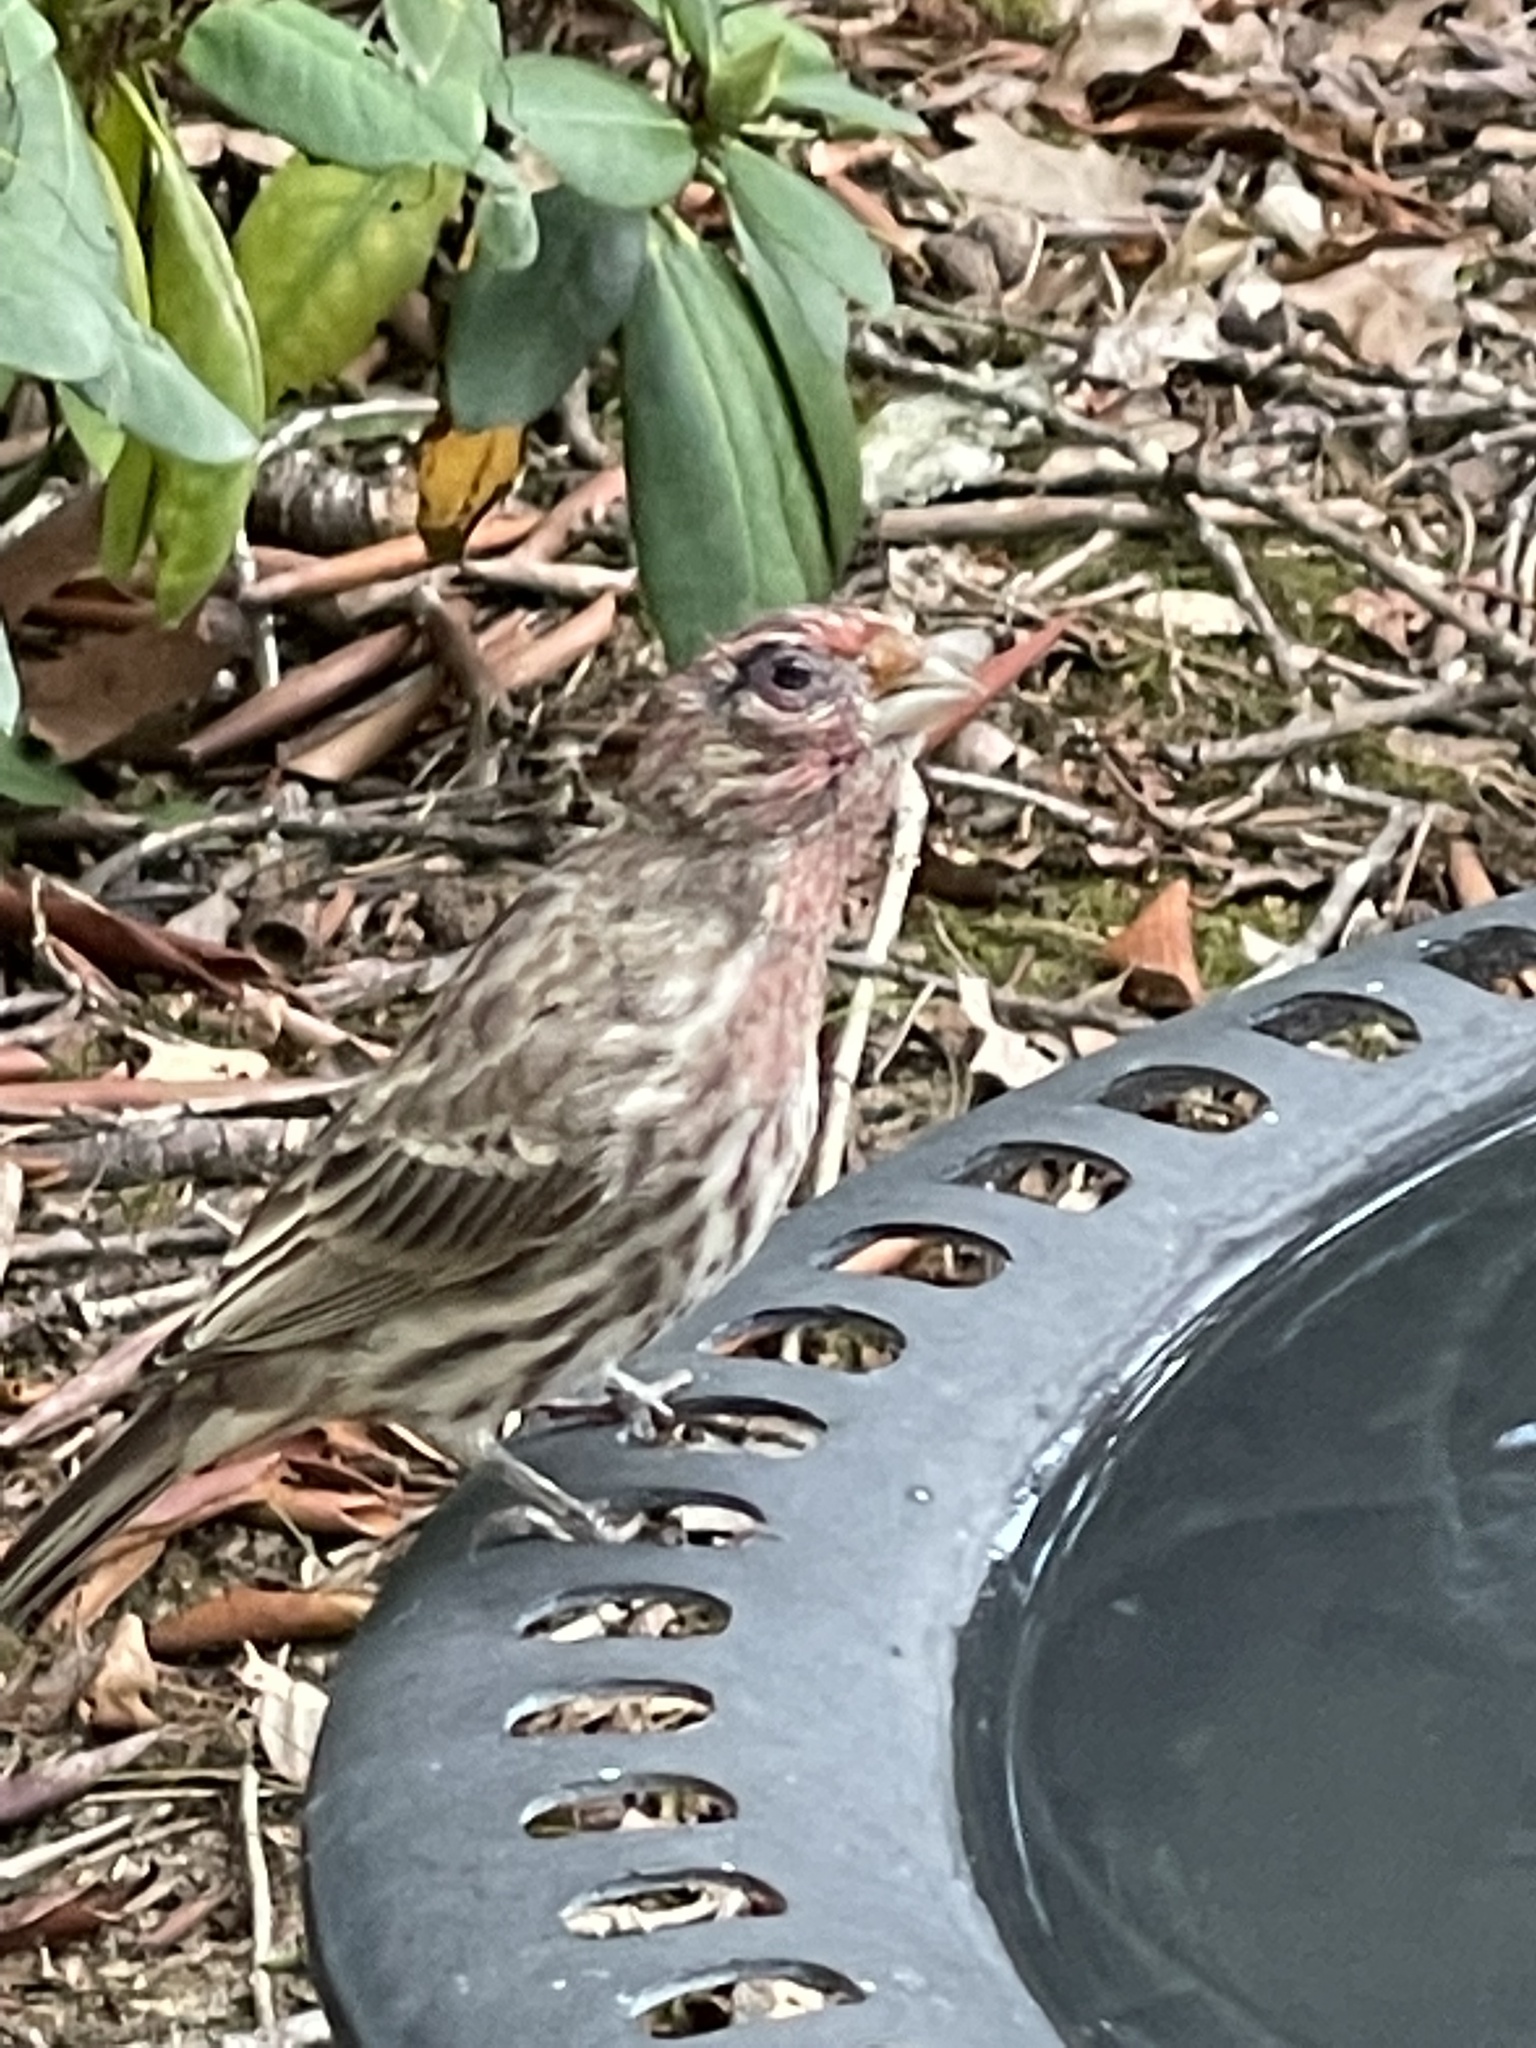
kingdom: Animalia
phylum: Chordata
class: Aves
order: Passeriformes
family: Fringillidae
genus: Haemorhous
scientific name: Haemorhous mexicanus
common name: House finch
